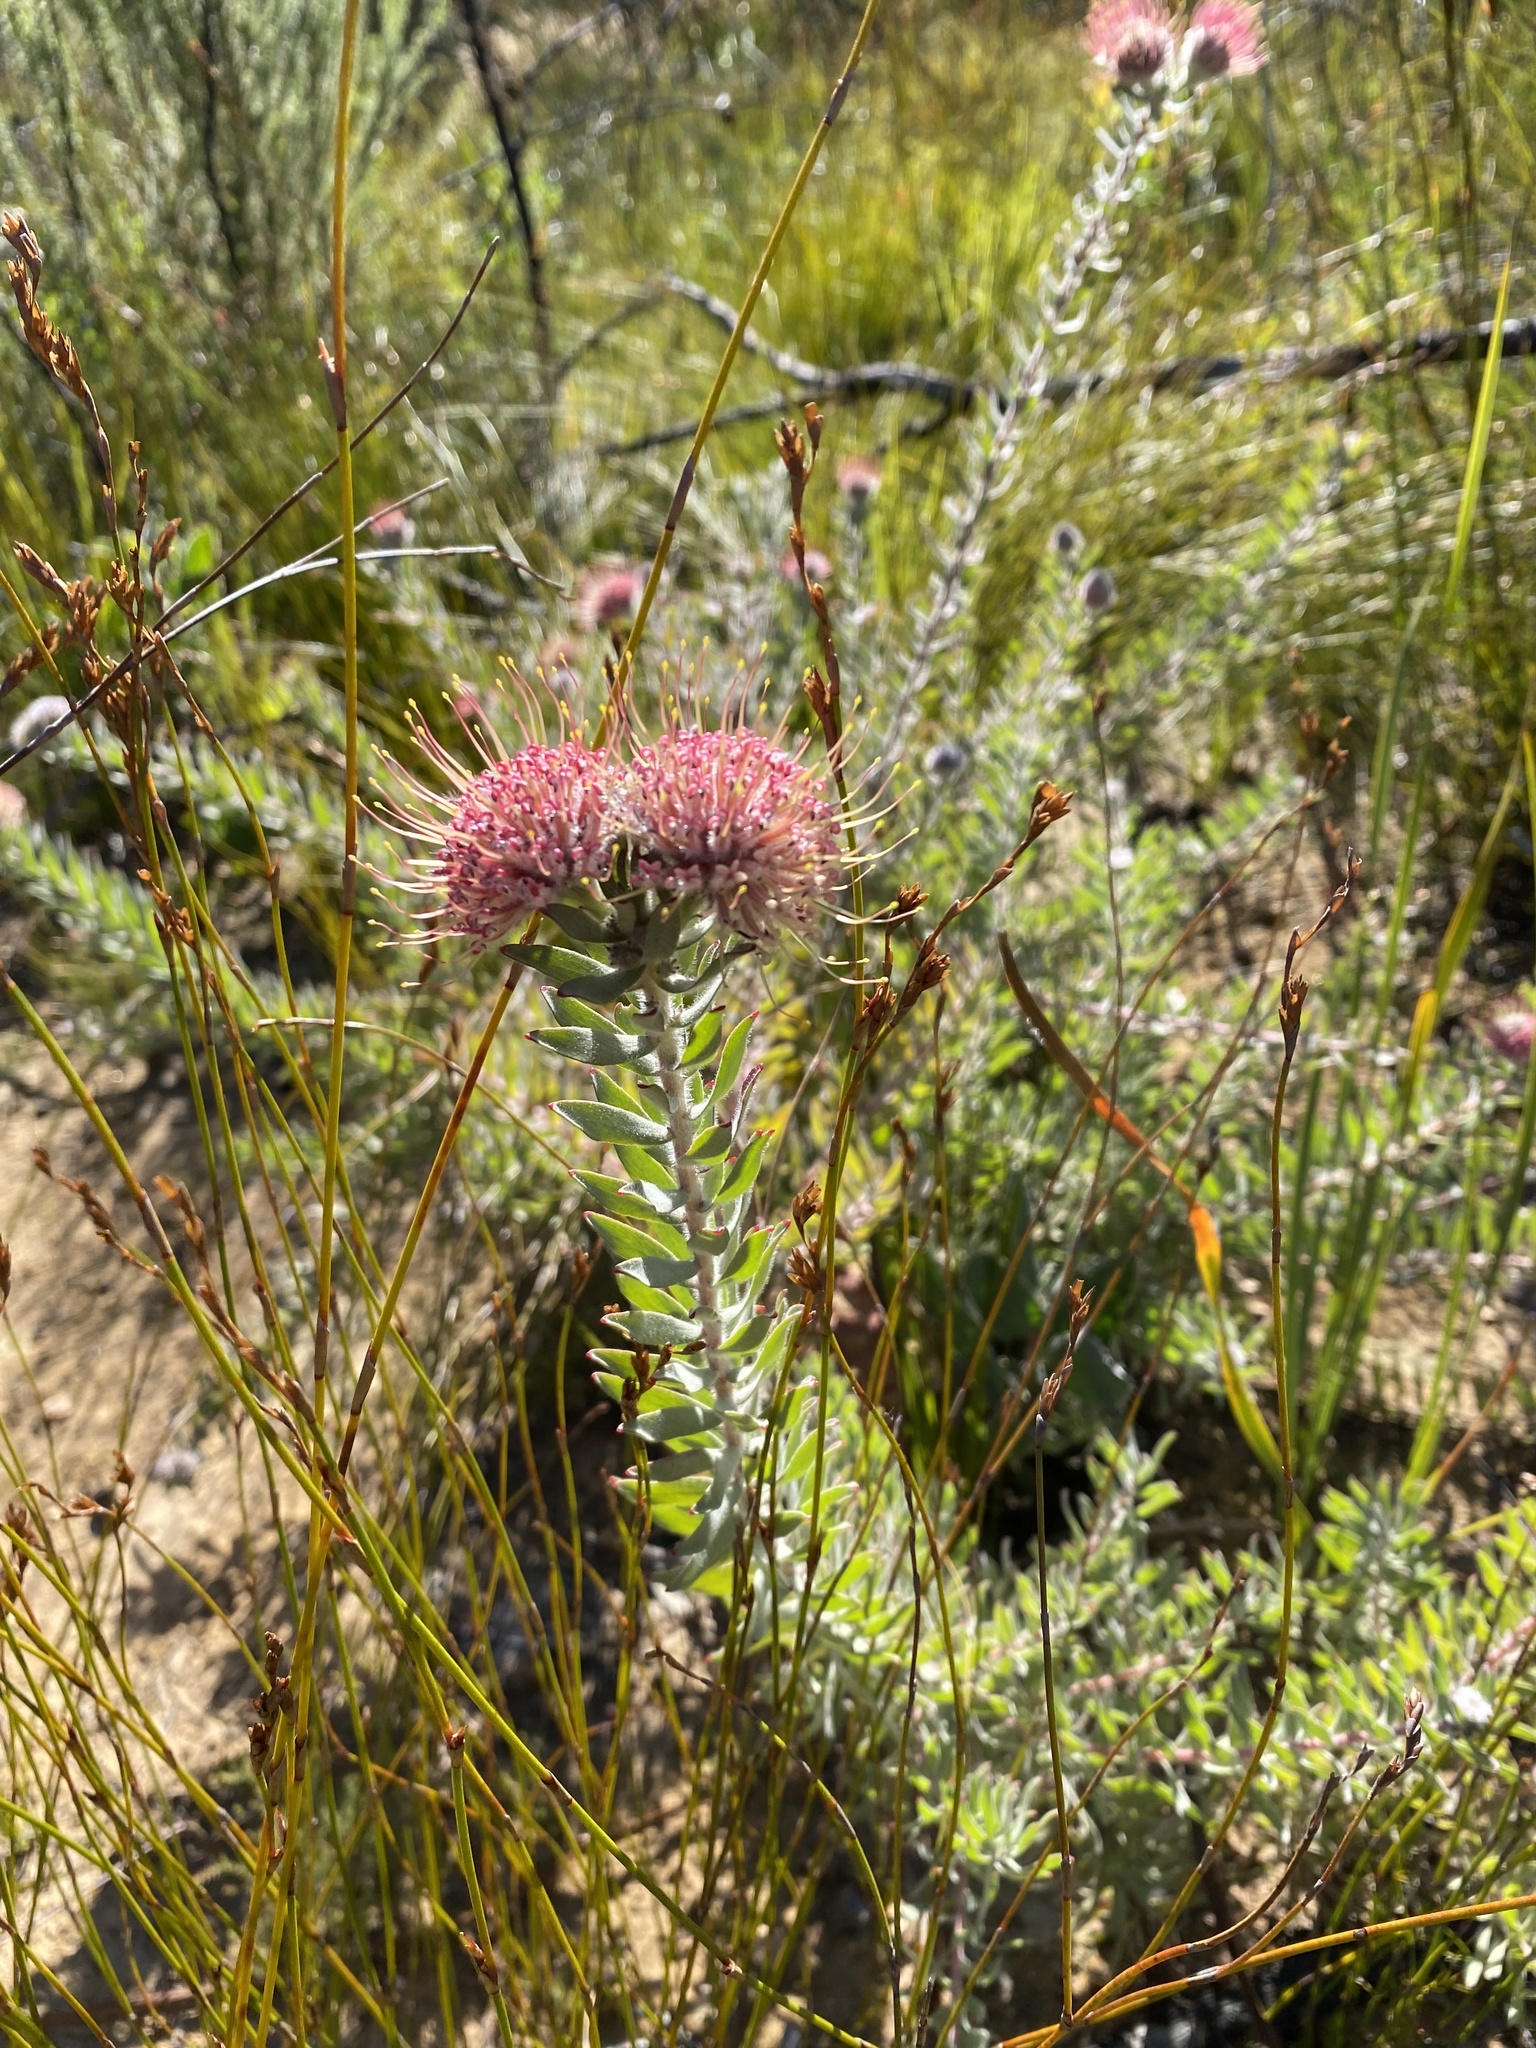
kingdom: Plantae
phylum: Tracheophyta
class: Magnoliopsida
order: Proteales
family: Proteaceae
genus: Leucospermum
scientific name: Leucospermum calligerum
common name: Arid pincushion
